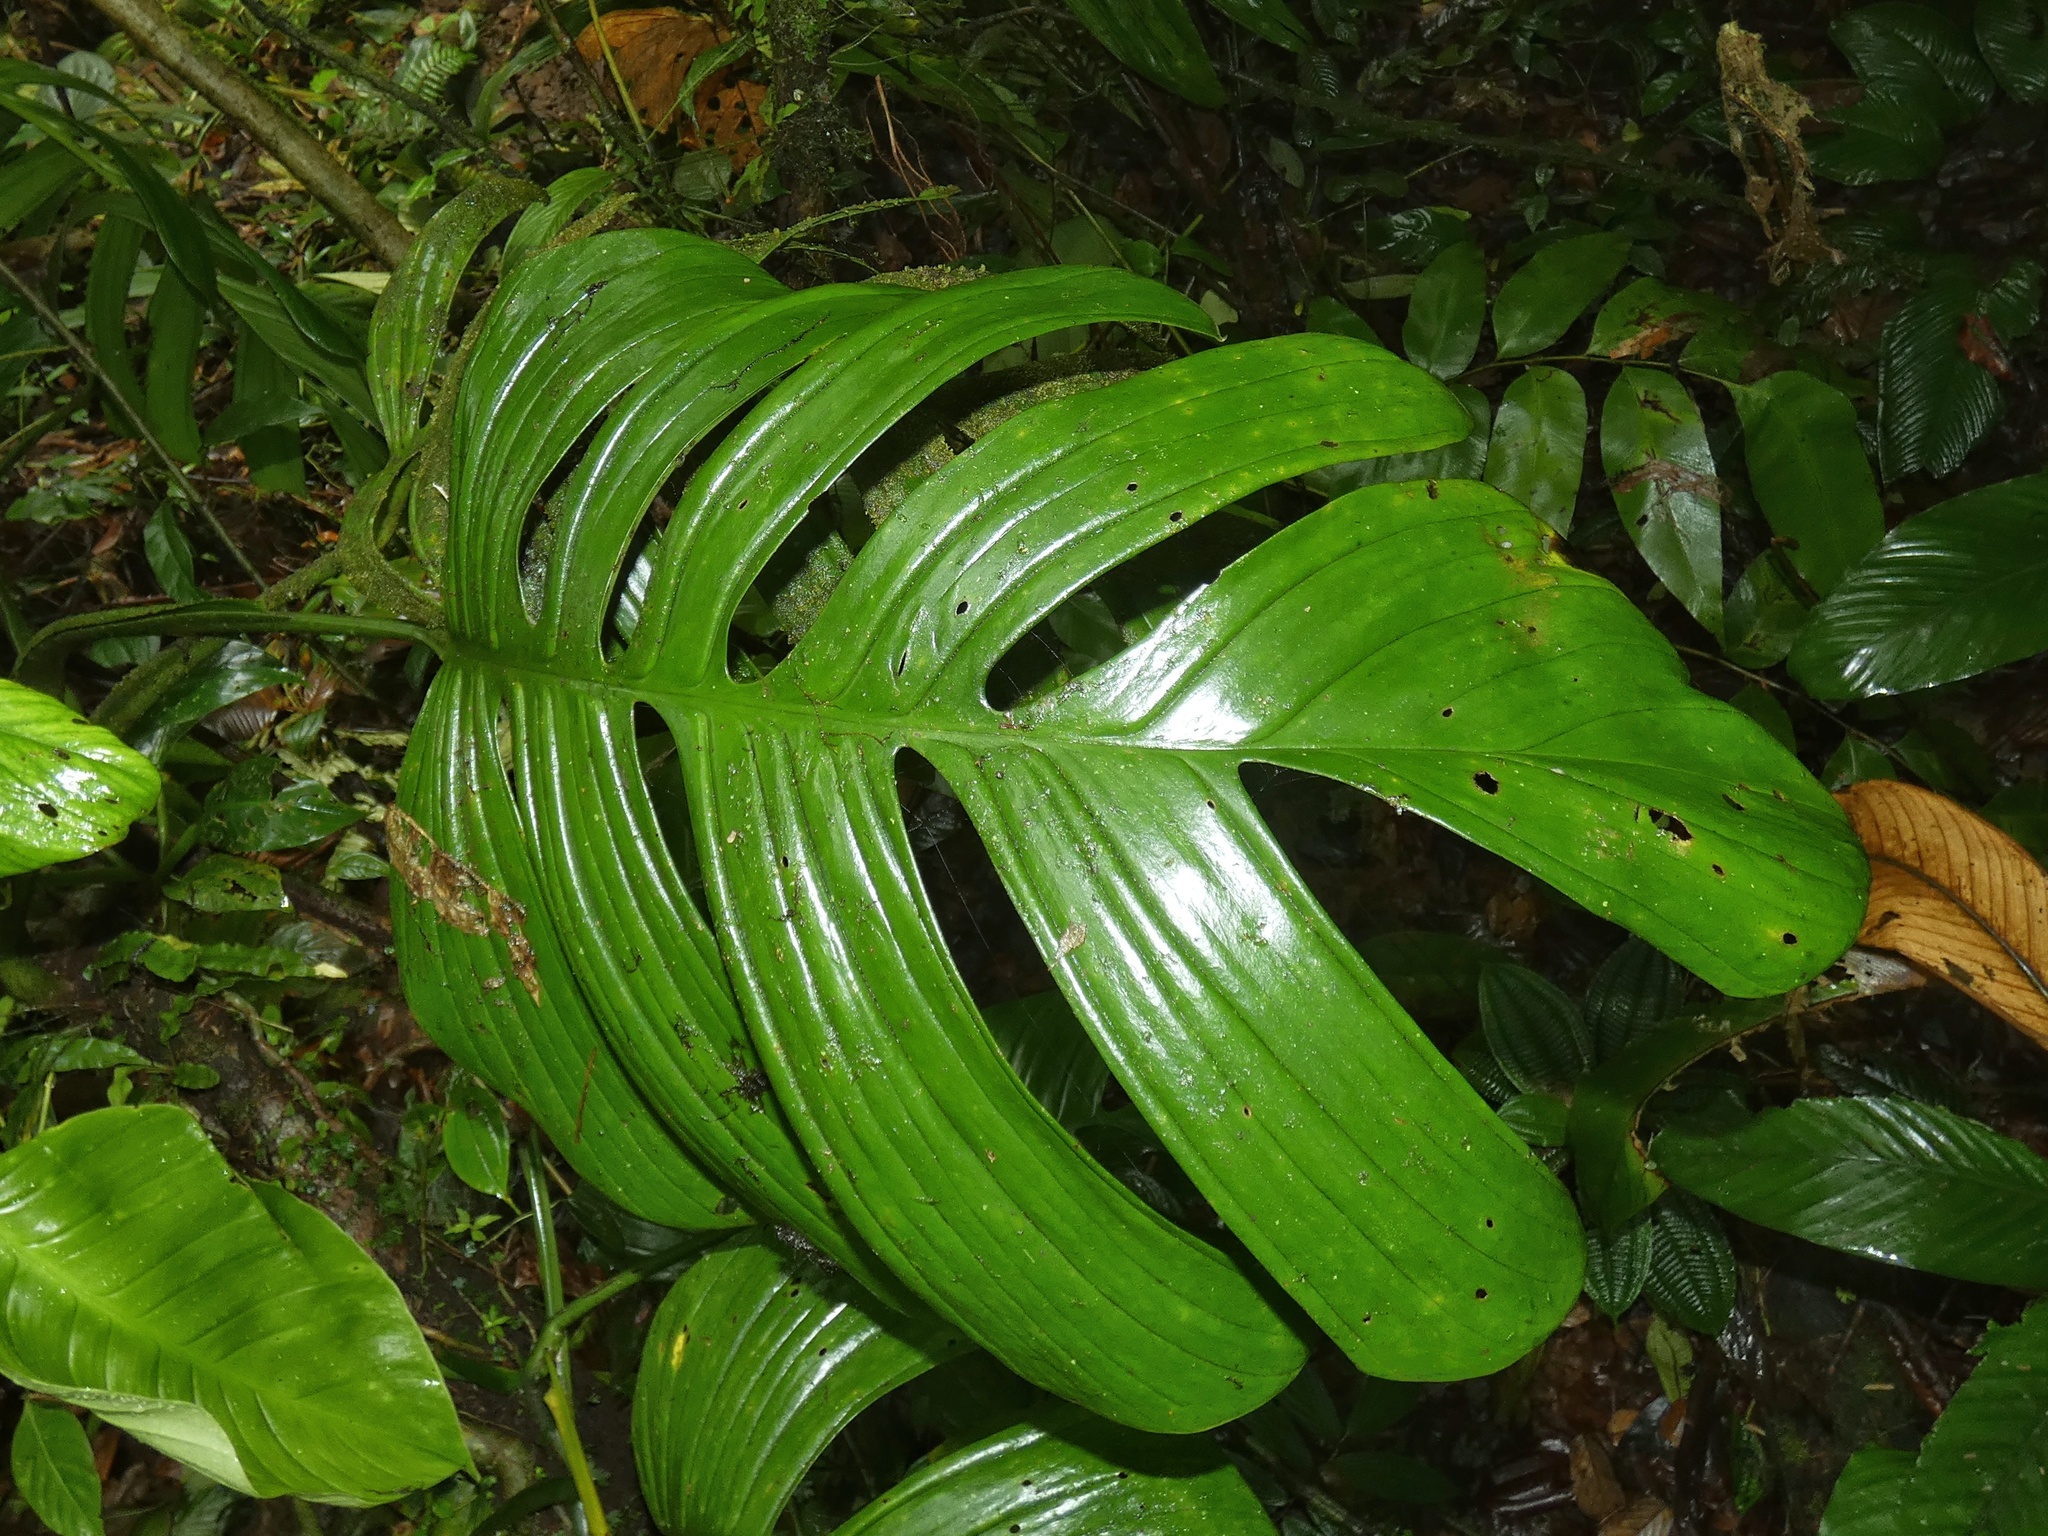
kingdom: Plantae
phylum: Tracheophyta
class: Liliopsida
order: Alismatales
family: Araceae
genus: Monstera
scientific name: Monstera dissecta
